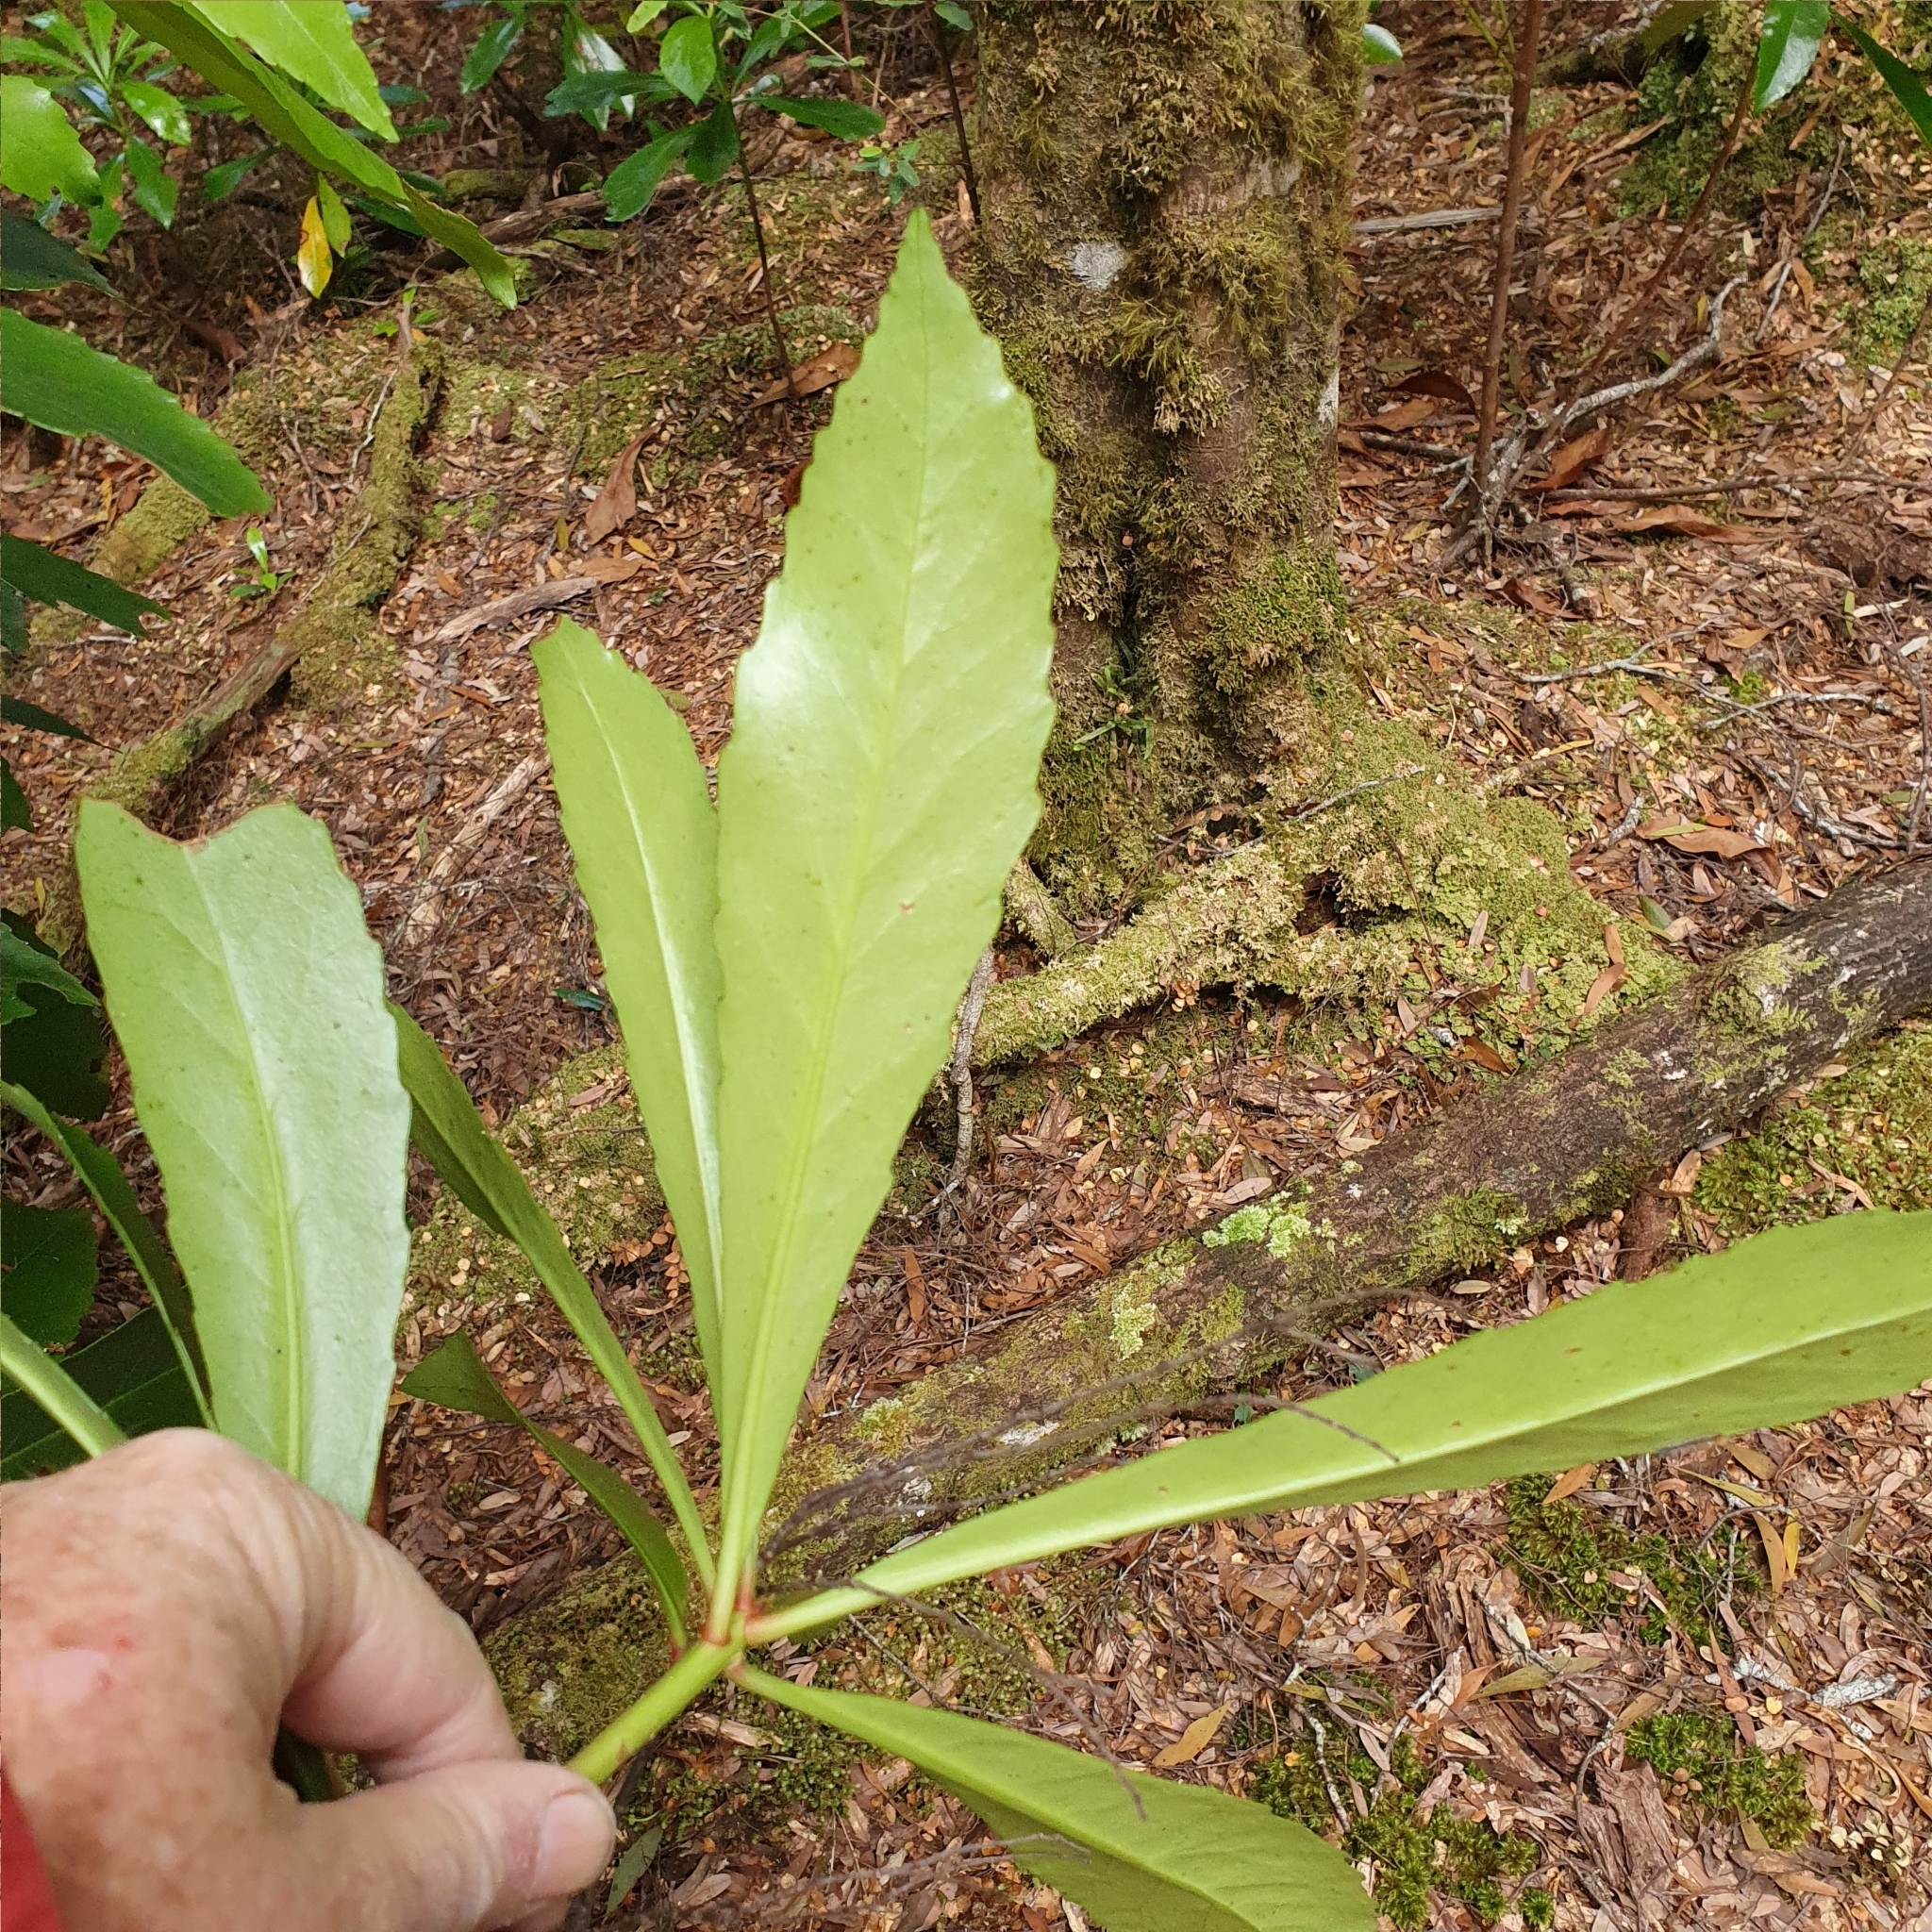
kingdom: Plantae
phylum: Tracheophyta
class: Magnoliopsida
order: Escalloniales
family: Escalloniaceae
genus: Anopterus
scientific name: Anopterus glandulosus
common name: Tasmanian-laurel
